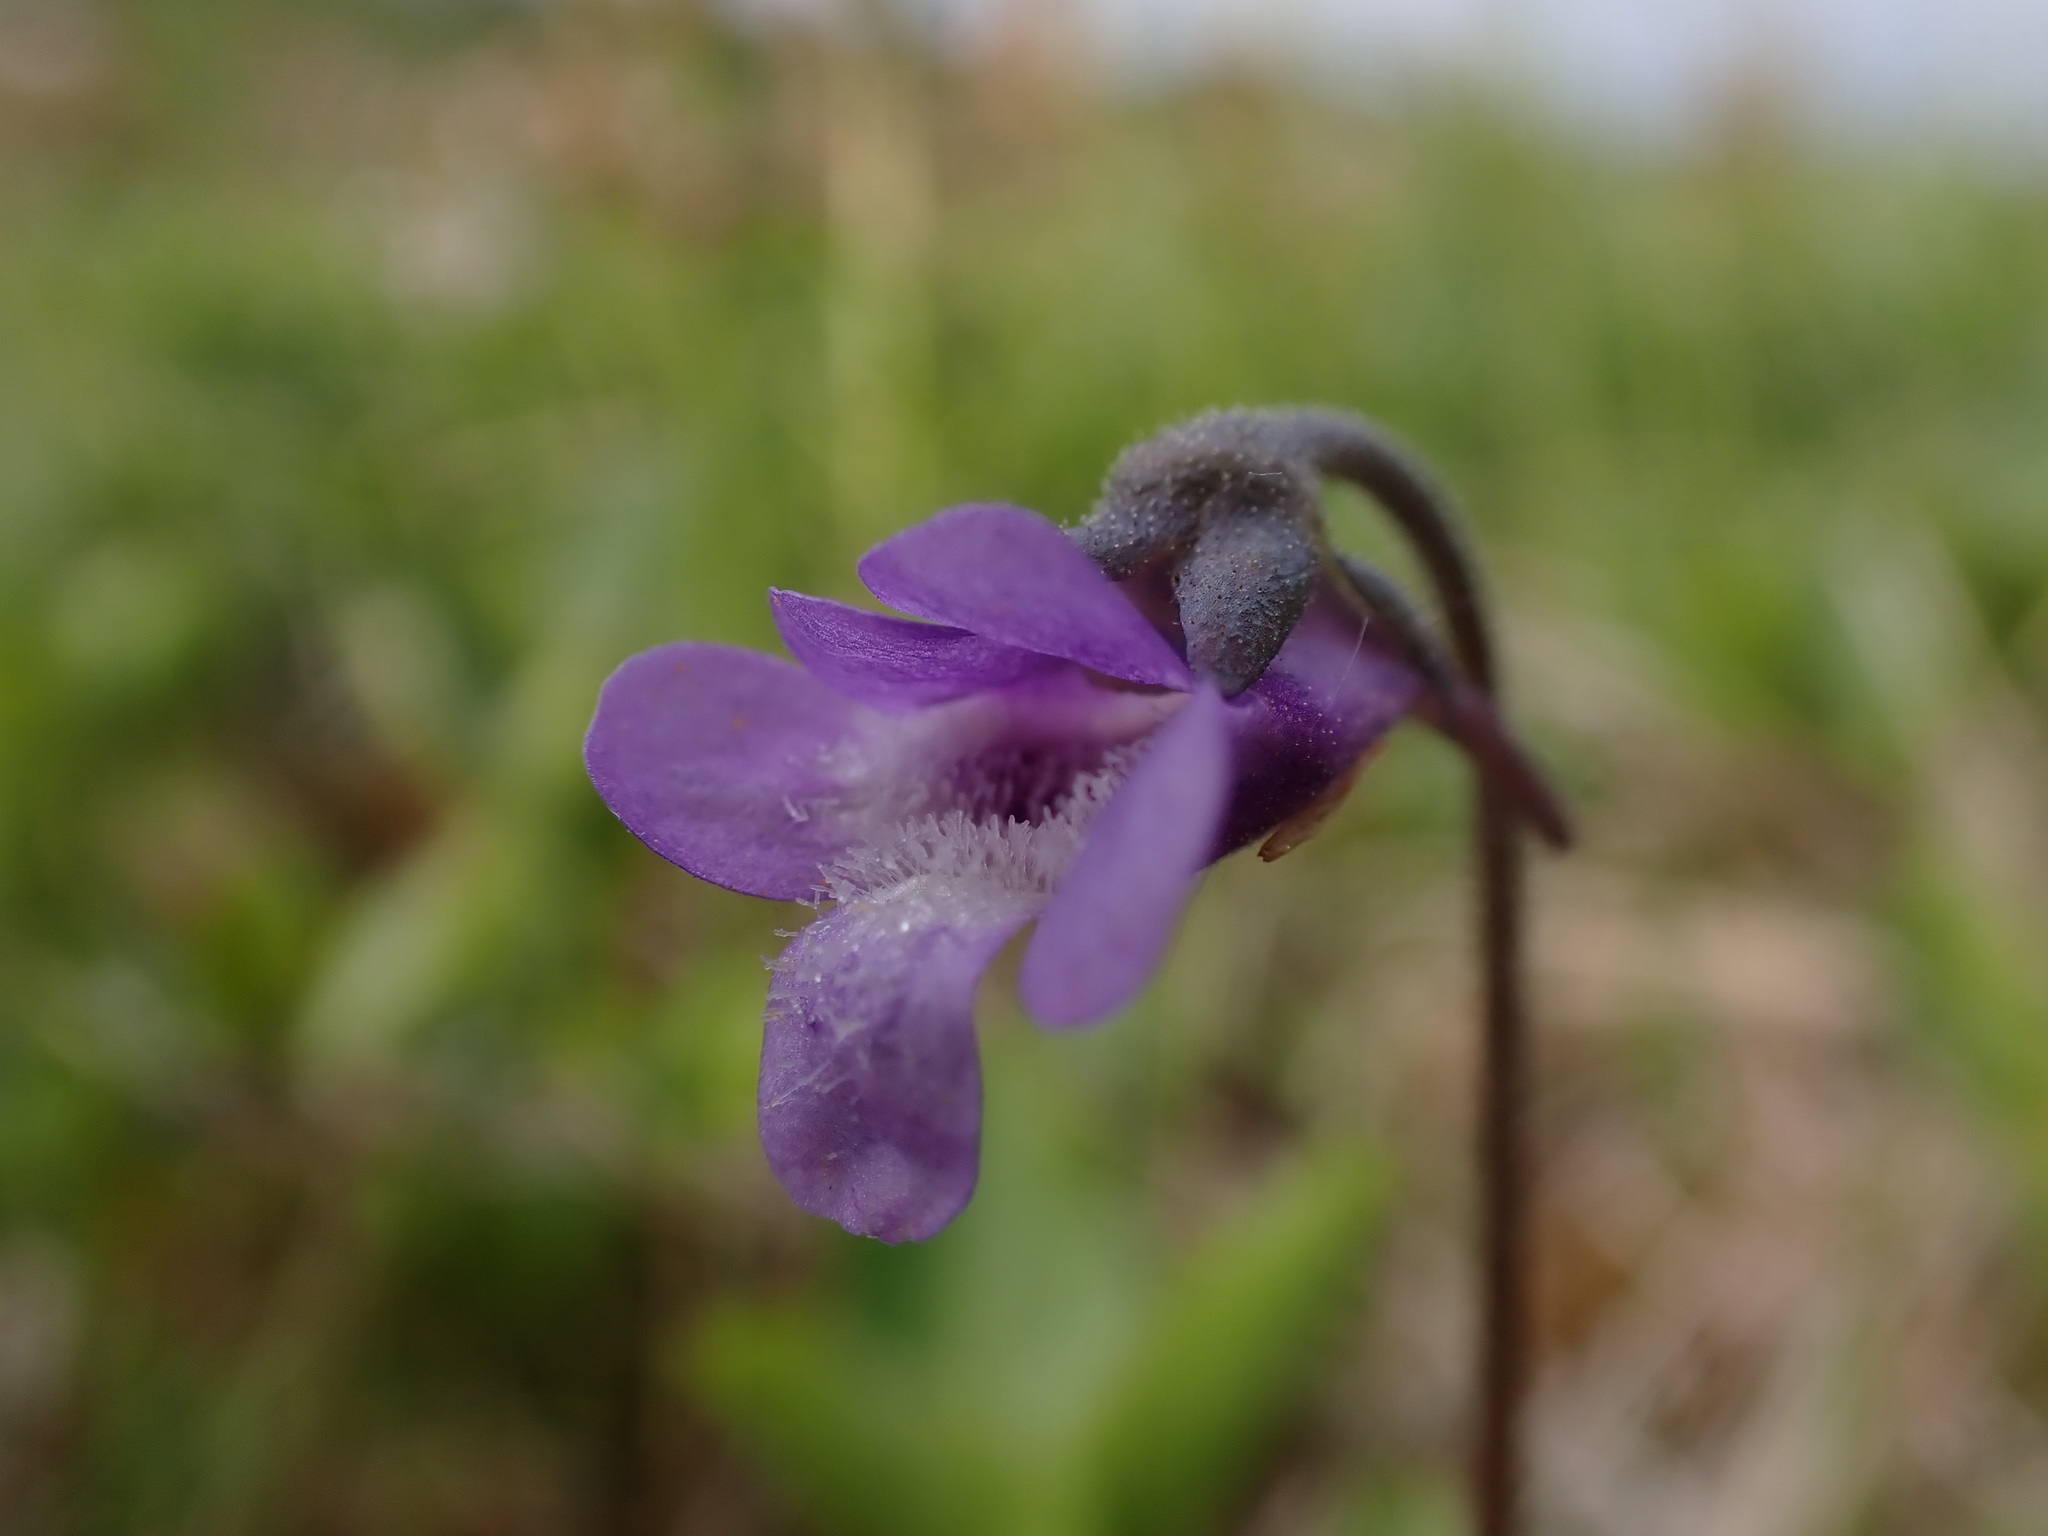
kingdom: Plantae
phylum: Tracheophyta
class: Magnoliopsida
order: Lamiales
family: Lentibulariaceae
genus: Pinguicula
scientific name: Pinguicula vulgaris
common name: Common butterwort
